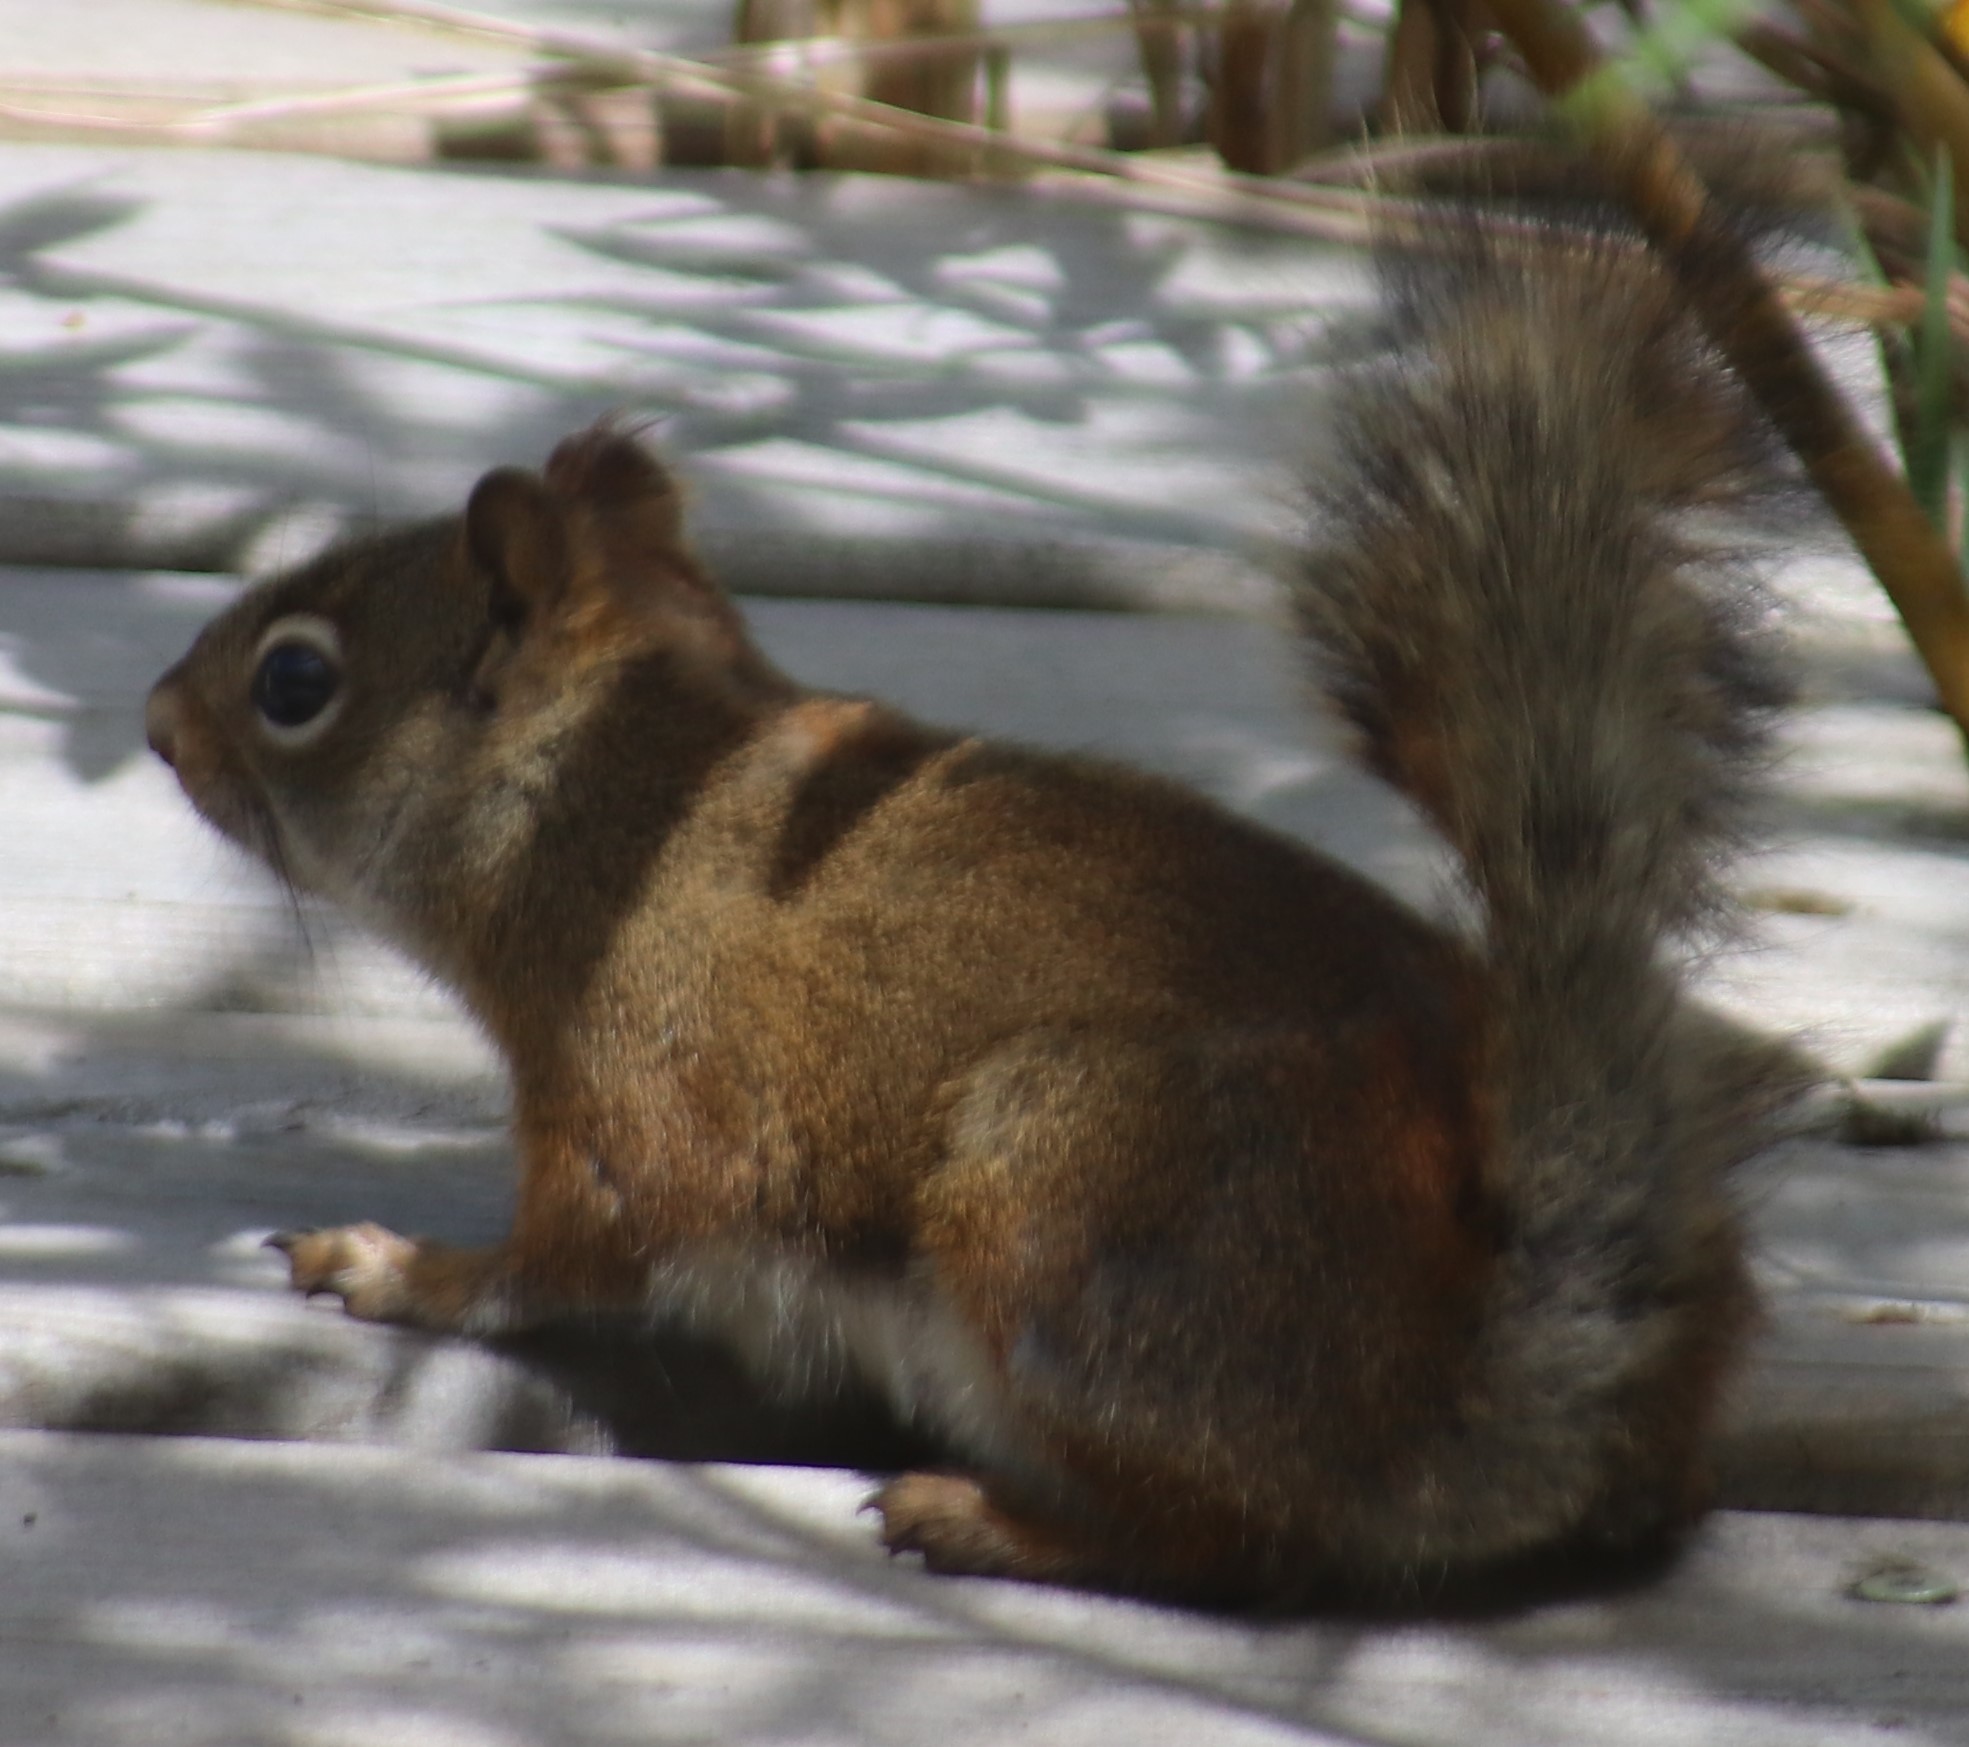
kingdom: Animalia
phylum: Chordata
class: Mammalia
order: Rodentia
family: Sciuridae
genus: Tamiasciurus
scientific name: Tamiasciurus hudsonicus
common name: Red squirrel
